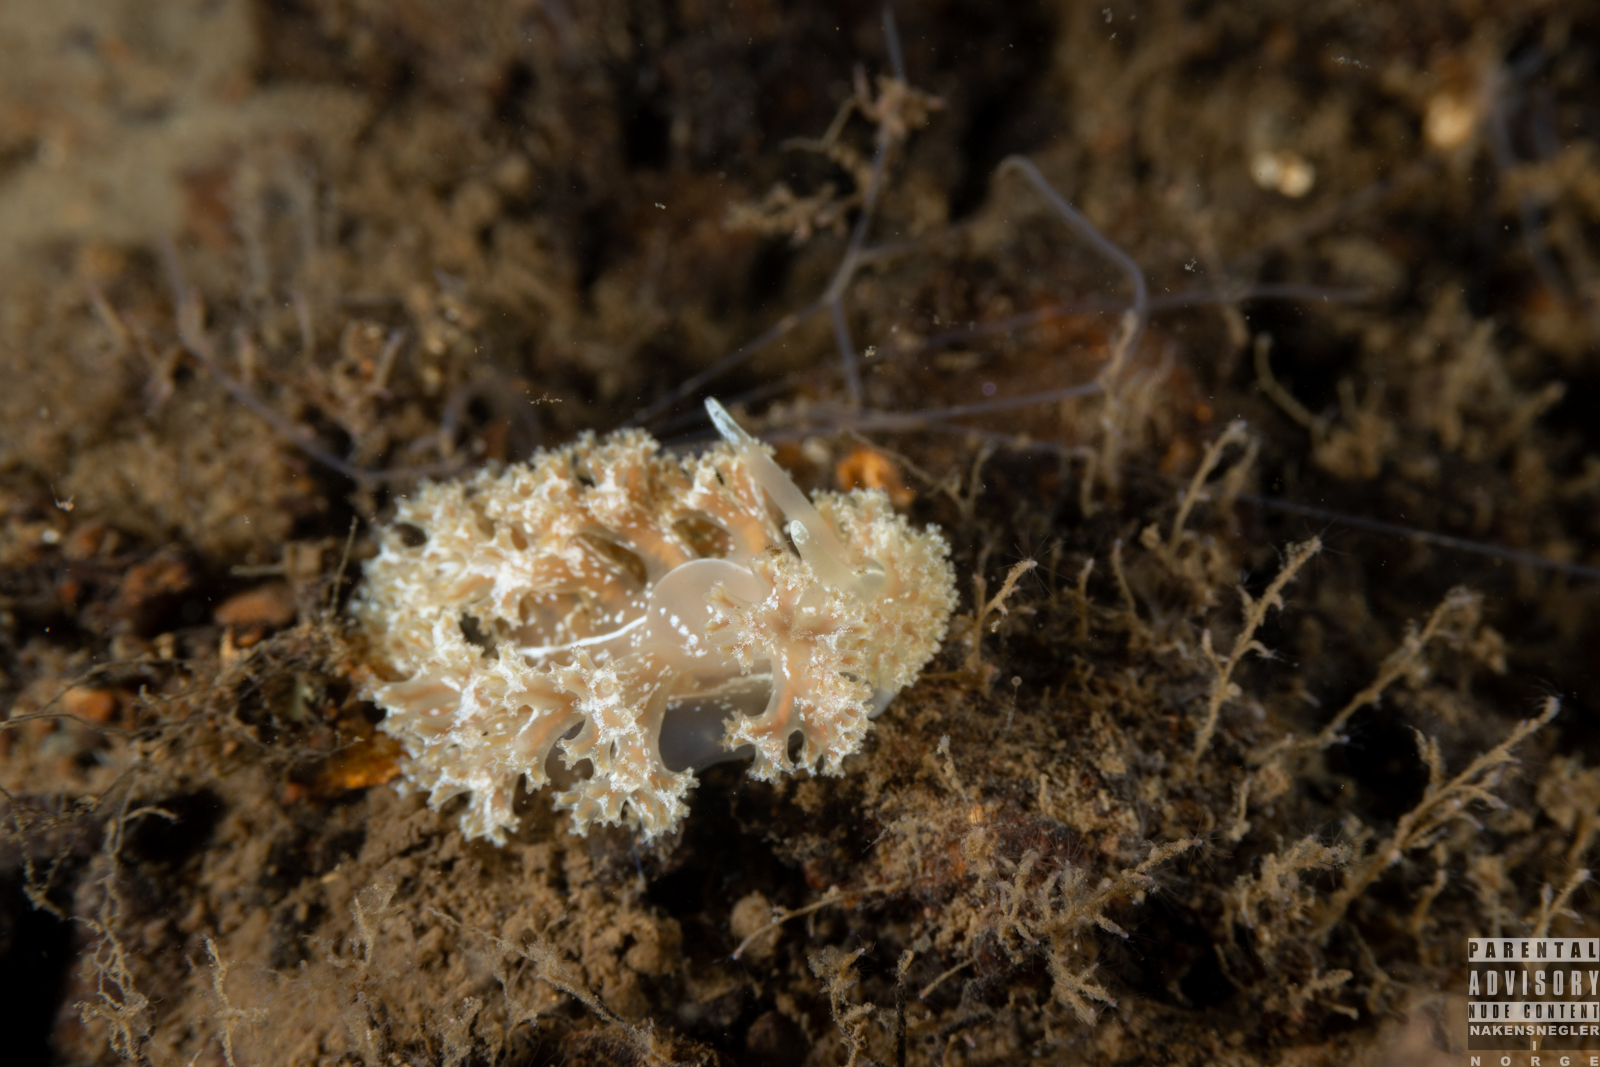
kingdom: Animalia
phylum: Mollusca
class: Gastropoda
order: Nudibranchia
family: Heroidae
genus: Hero
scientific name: Hero formosa
